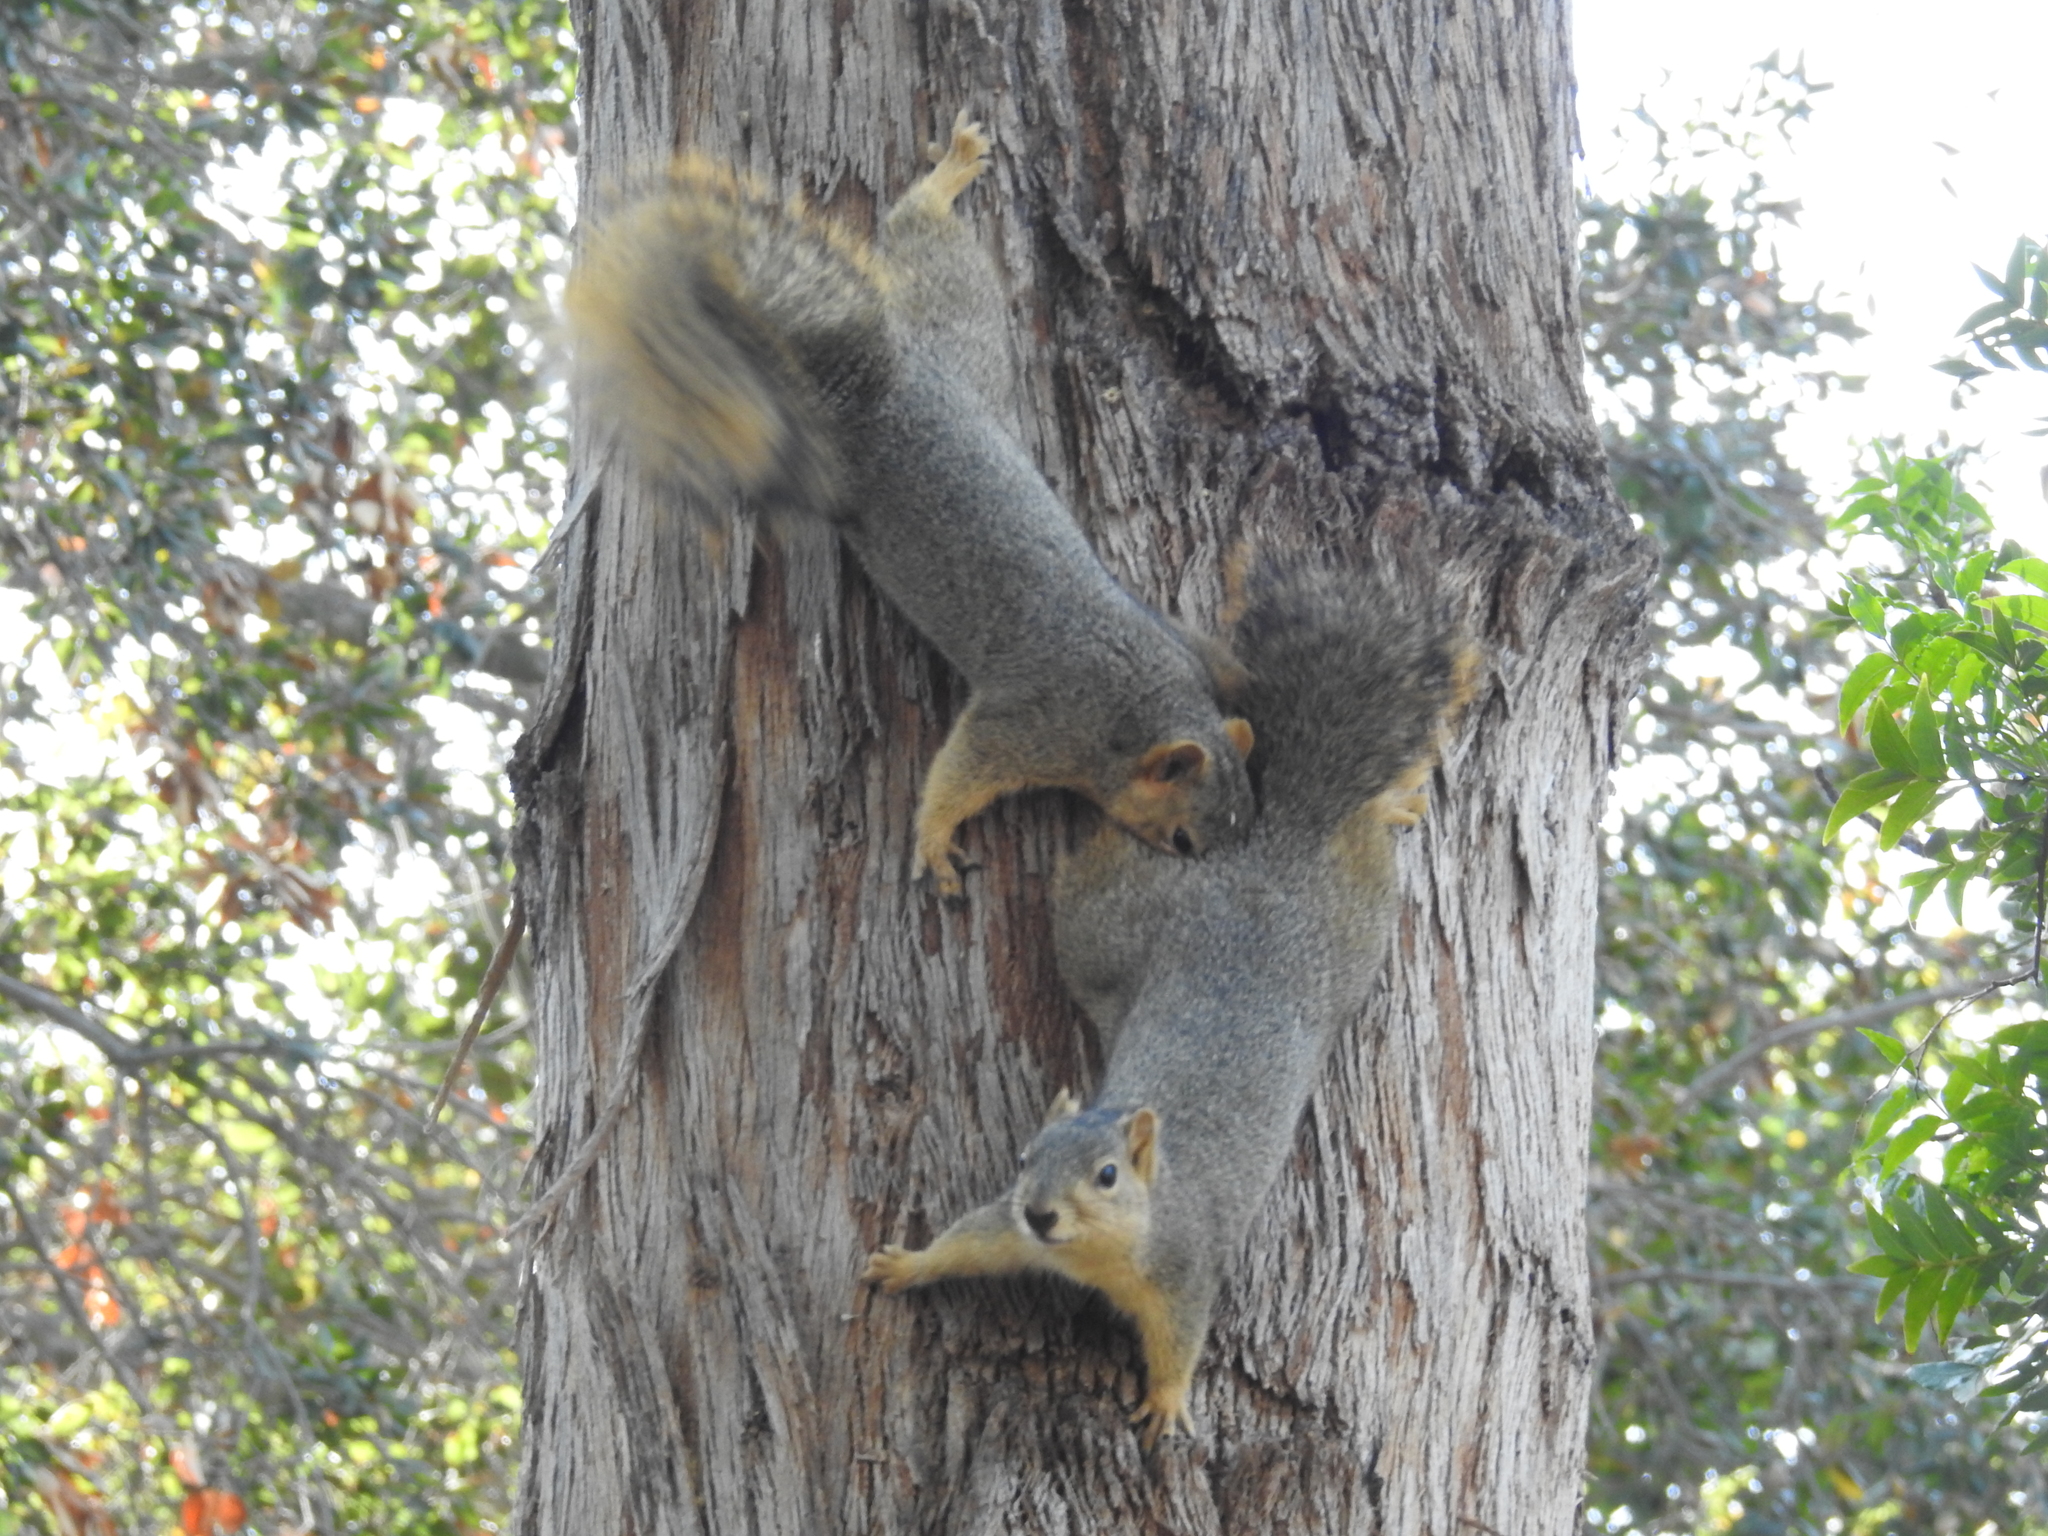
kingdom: Animalia
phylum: Chordata
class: Mammalia
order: Rodentia
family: Sciuridae
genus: Sciurus
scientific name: Sciurus niger
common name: Fox squirrel
